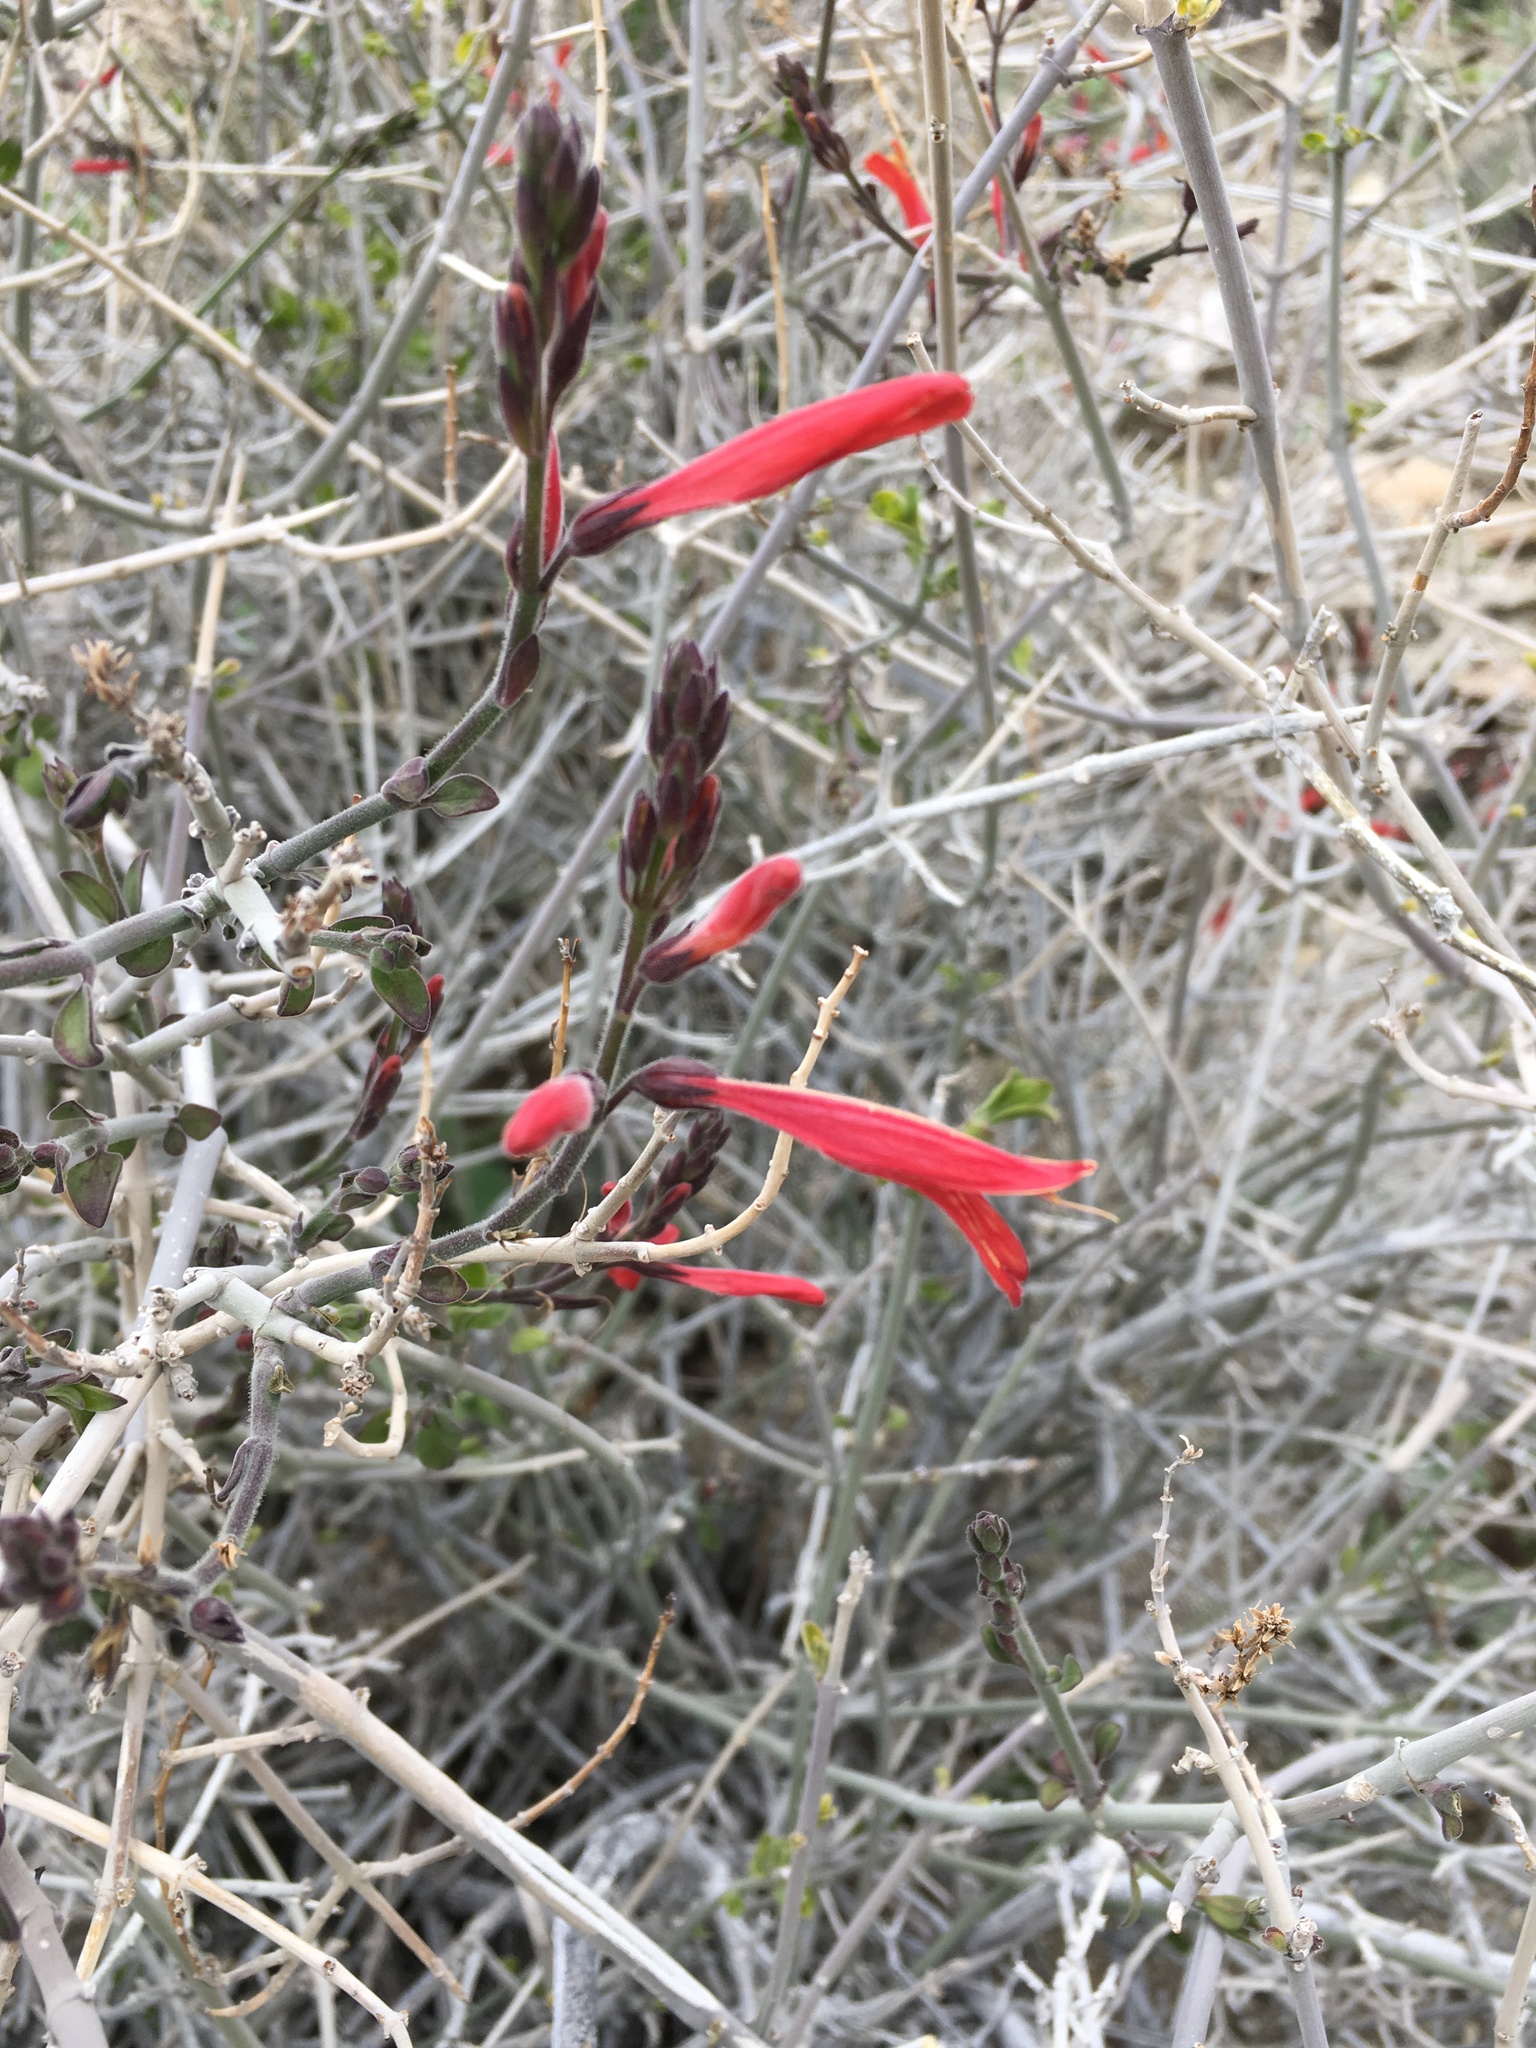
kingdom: Plantae
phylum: Tracheophyta
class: Magnoliopsida
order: Lamiales
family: Acanthaceae
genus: Justicia
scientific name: Justicia californica
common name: Chuparosa-honeysuckle
